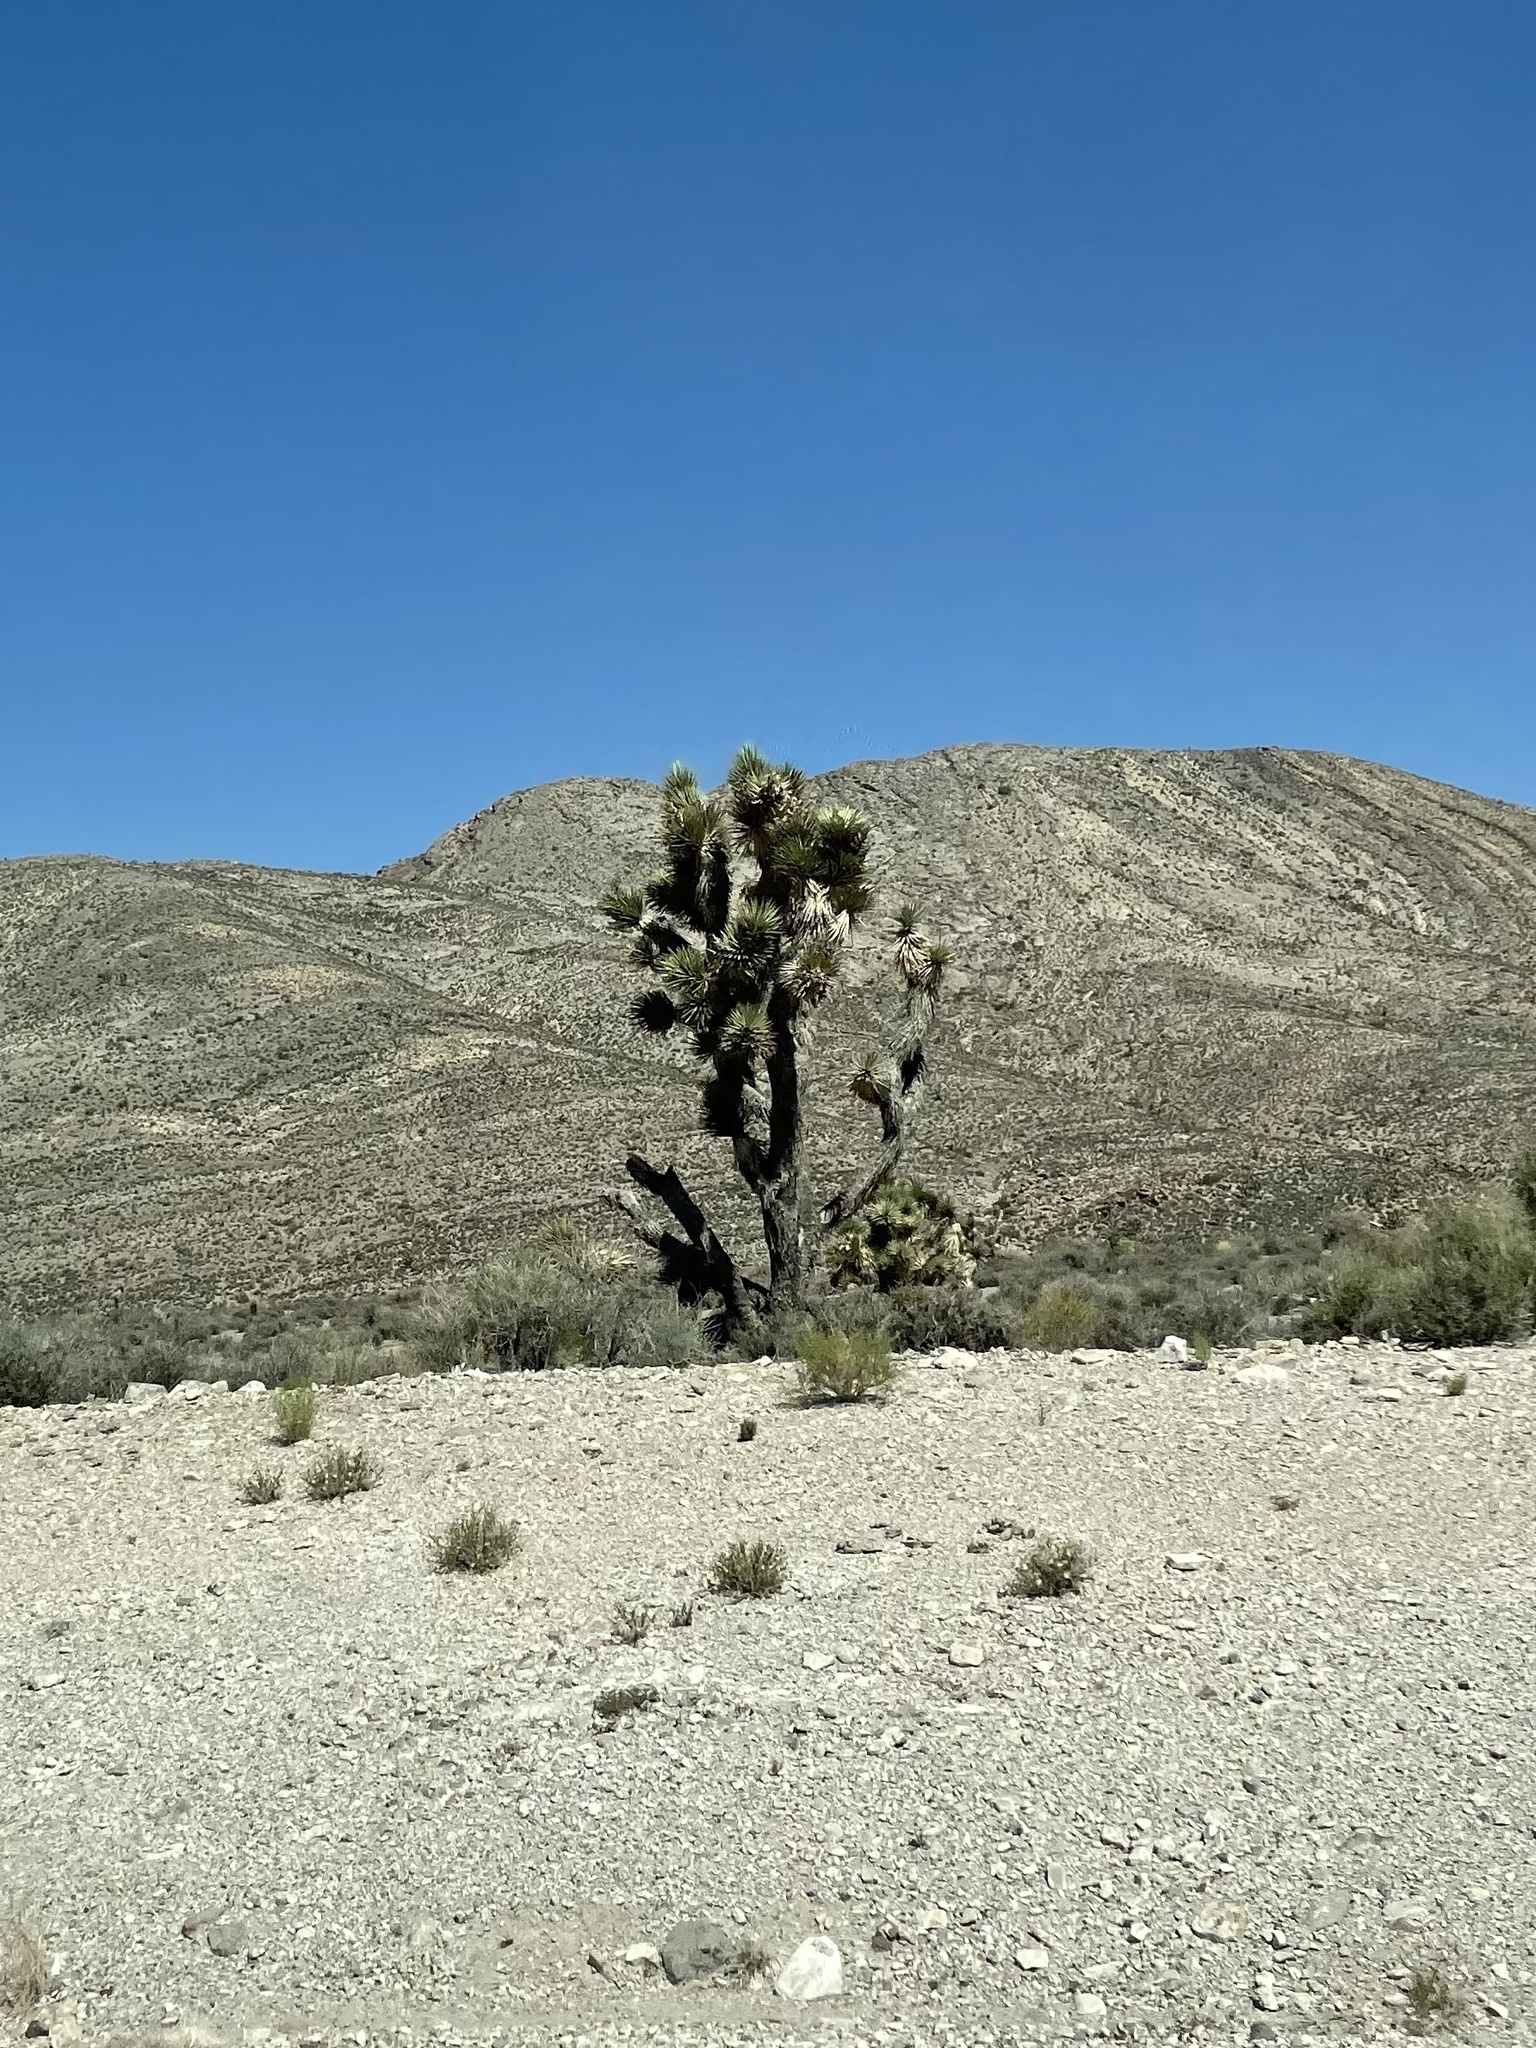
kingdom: Plantae
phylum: Tracheophyta
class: Liliopsida
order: Asparagales
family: Asparagaceae
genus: Yucca
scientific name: Yucca brevifolia
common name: Joshua tree
